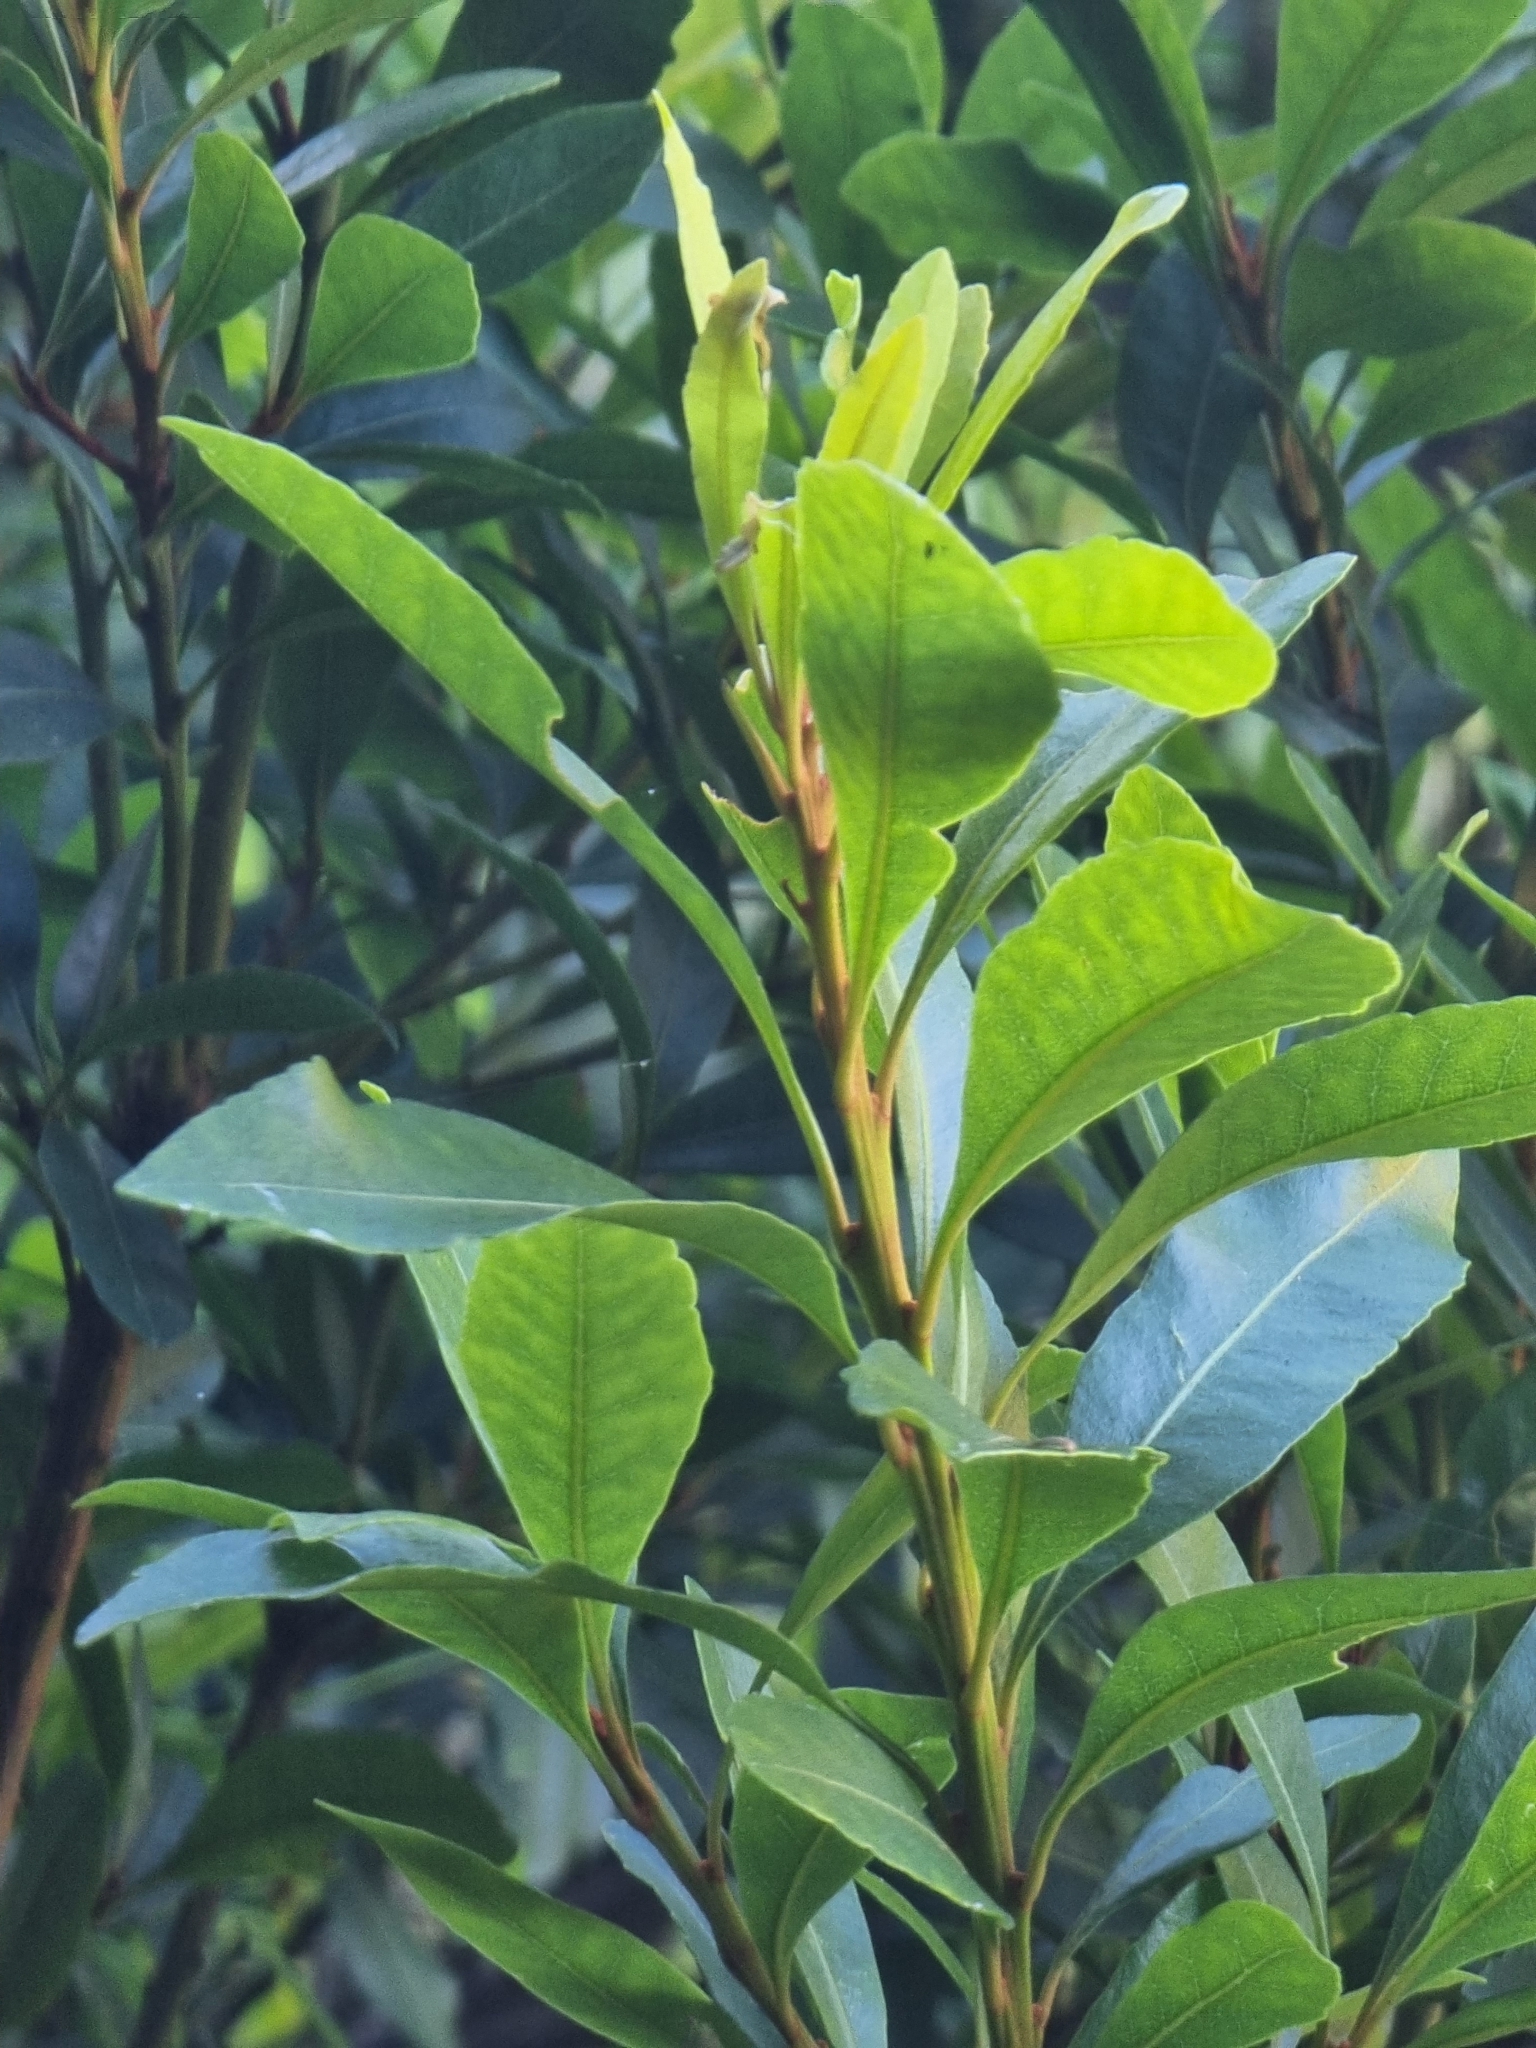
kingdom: Plantae
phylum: Tracheophyta
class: Magnoliopsida
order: Fagales
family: Myricaceae
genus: Morella
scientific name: Morella faya
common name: Firetree
